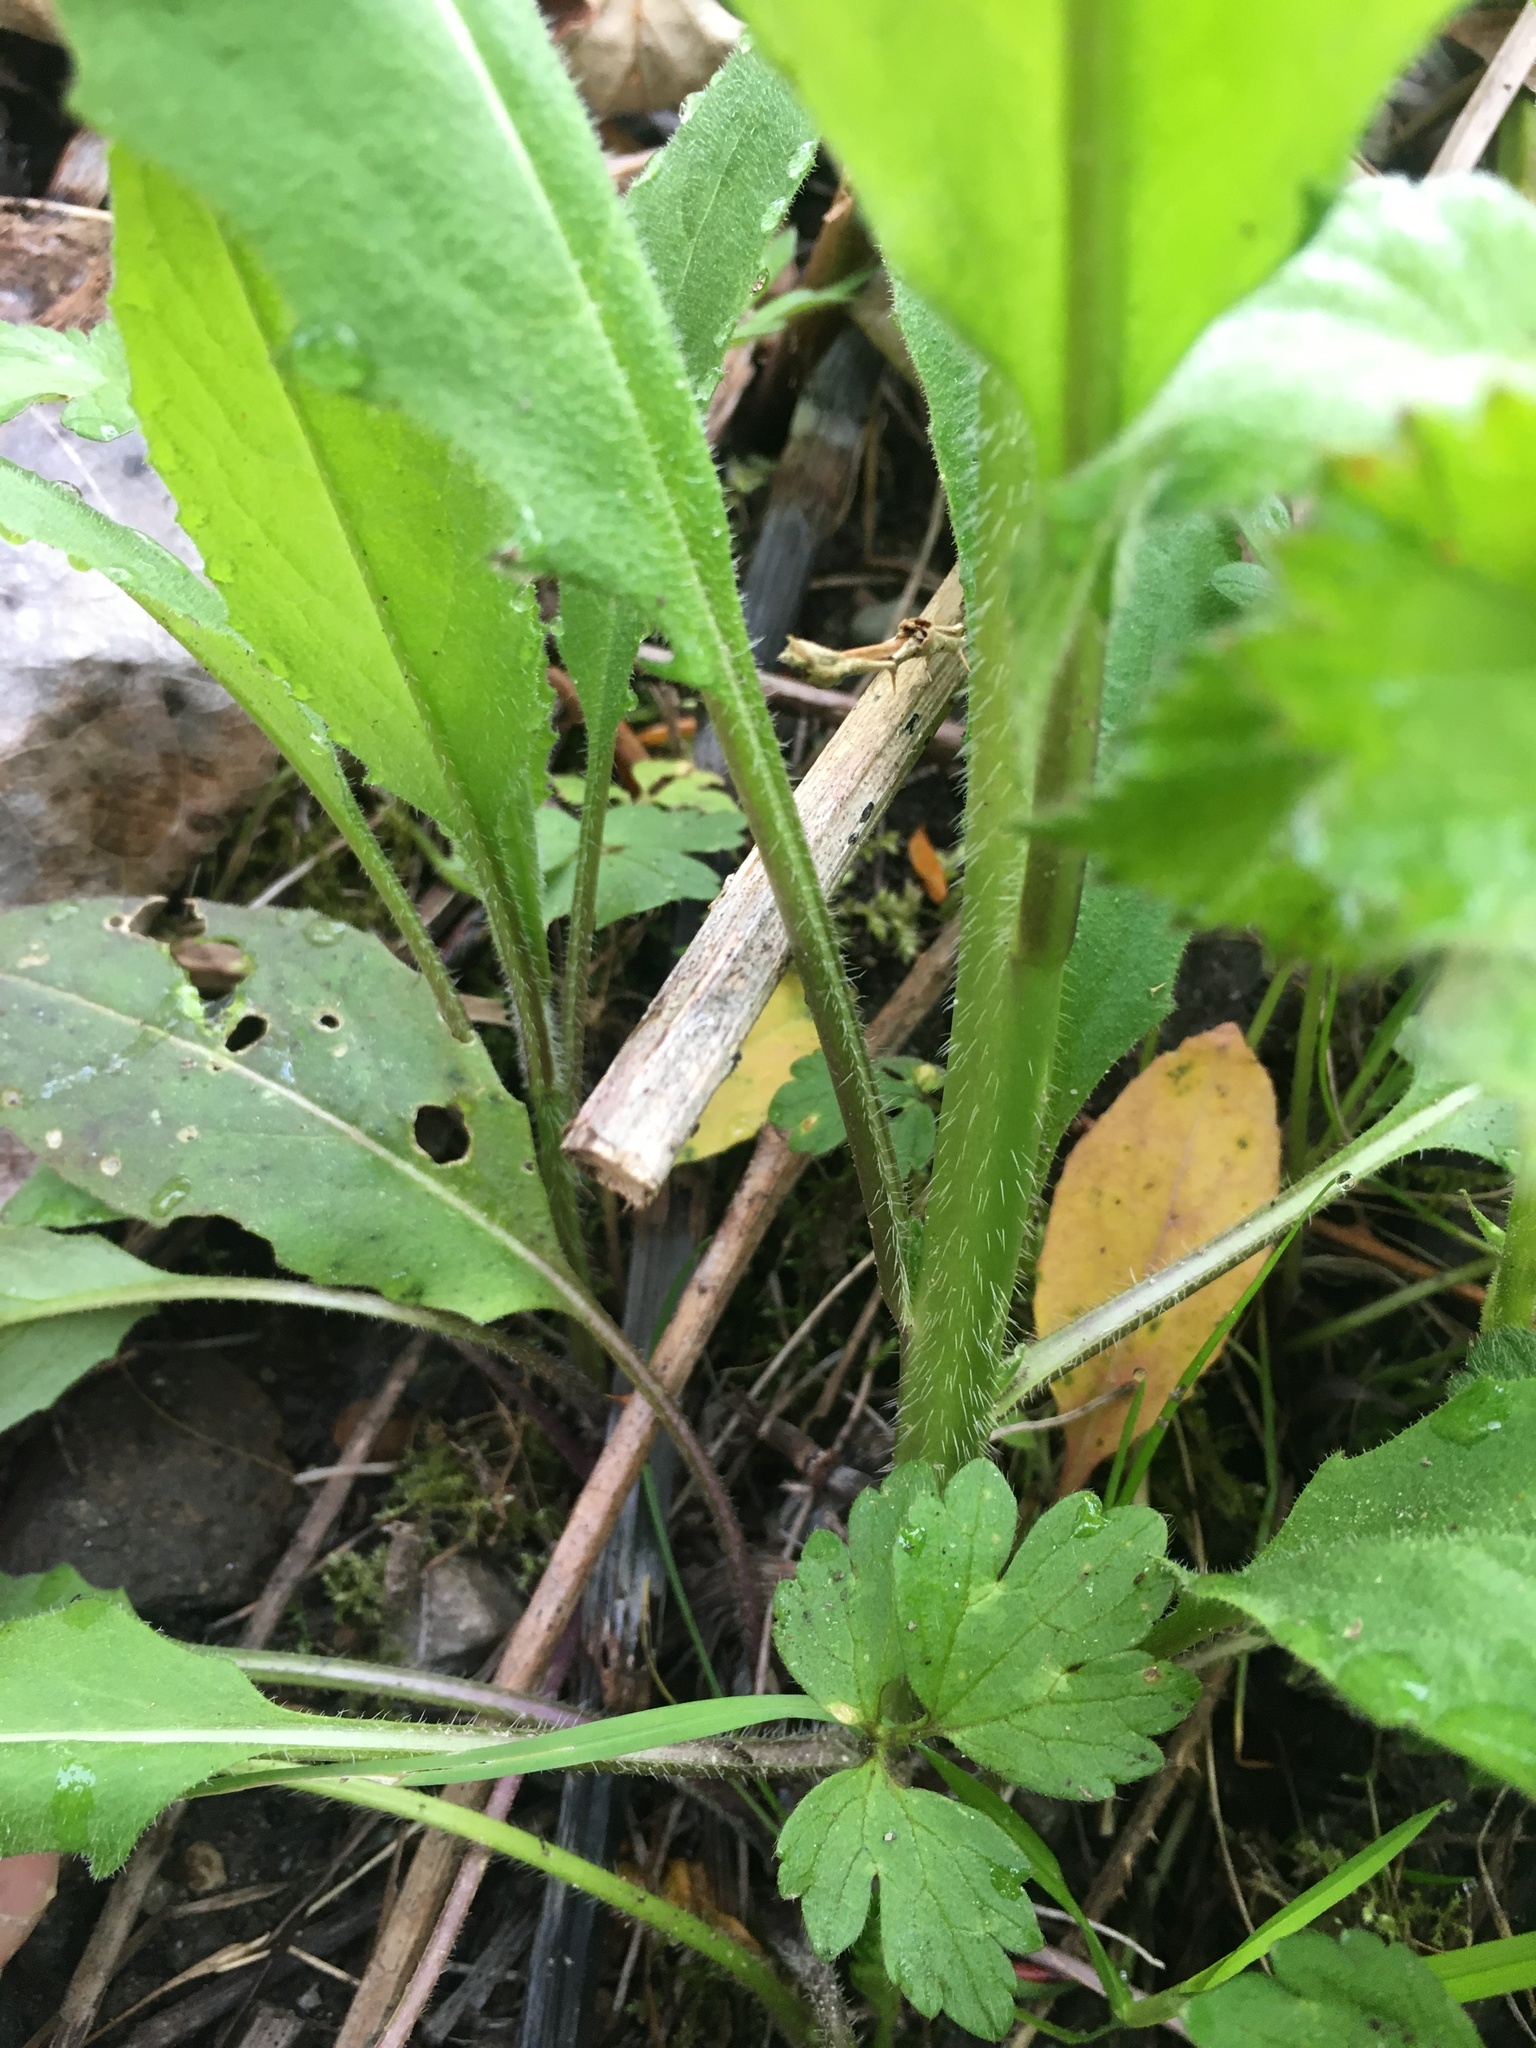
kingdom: Plantae
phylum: Tracheophyta
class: Magnoliopsida
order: Brassicales
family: Brassicaceae
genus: Hesperis
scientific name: Hesperis matronalis
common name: Dame's-violet
